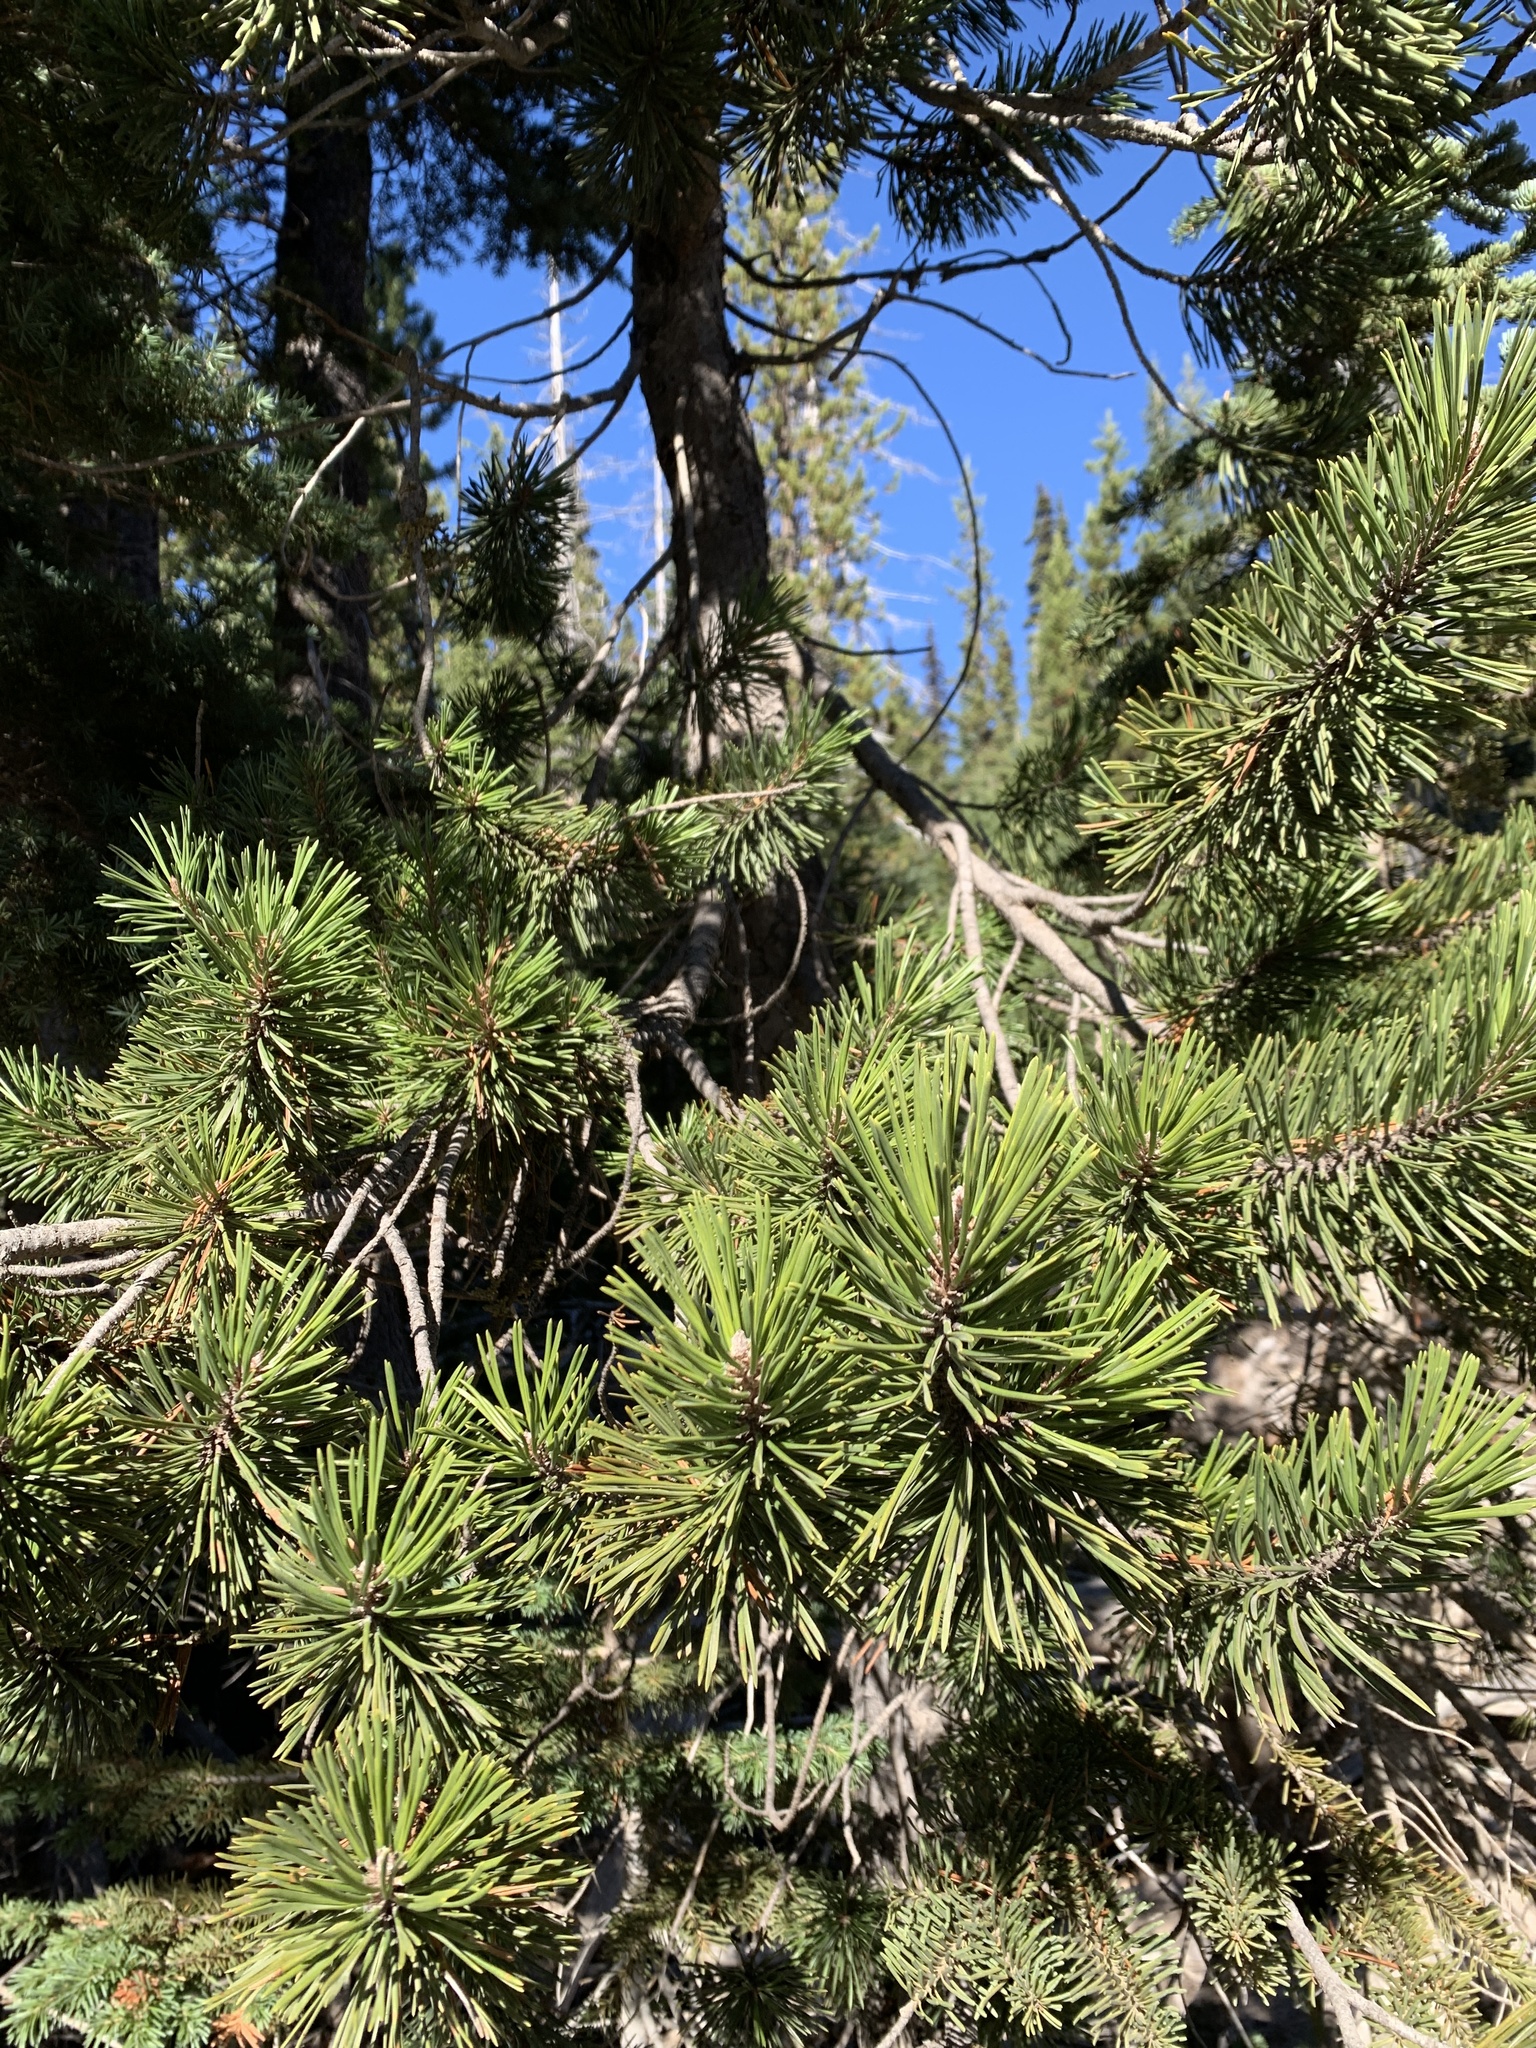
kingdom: Plantae
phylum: Tracheophyta
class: Pinopsida
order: Pinales
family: Pinaceae
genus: Pinus
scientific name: Pinus contorta
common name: Lodgepole pine
